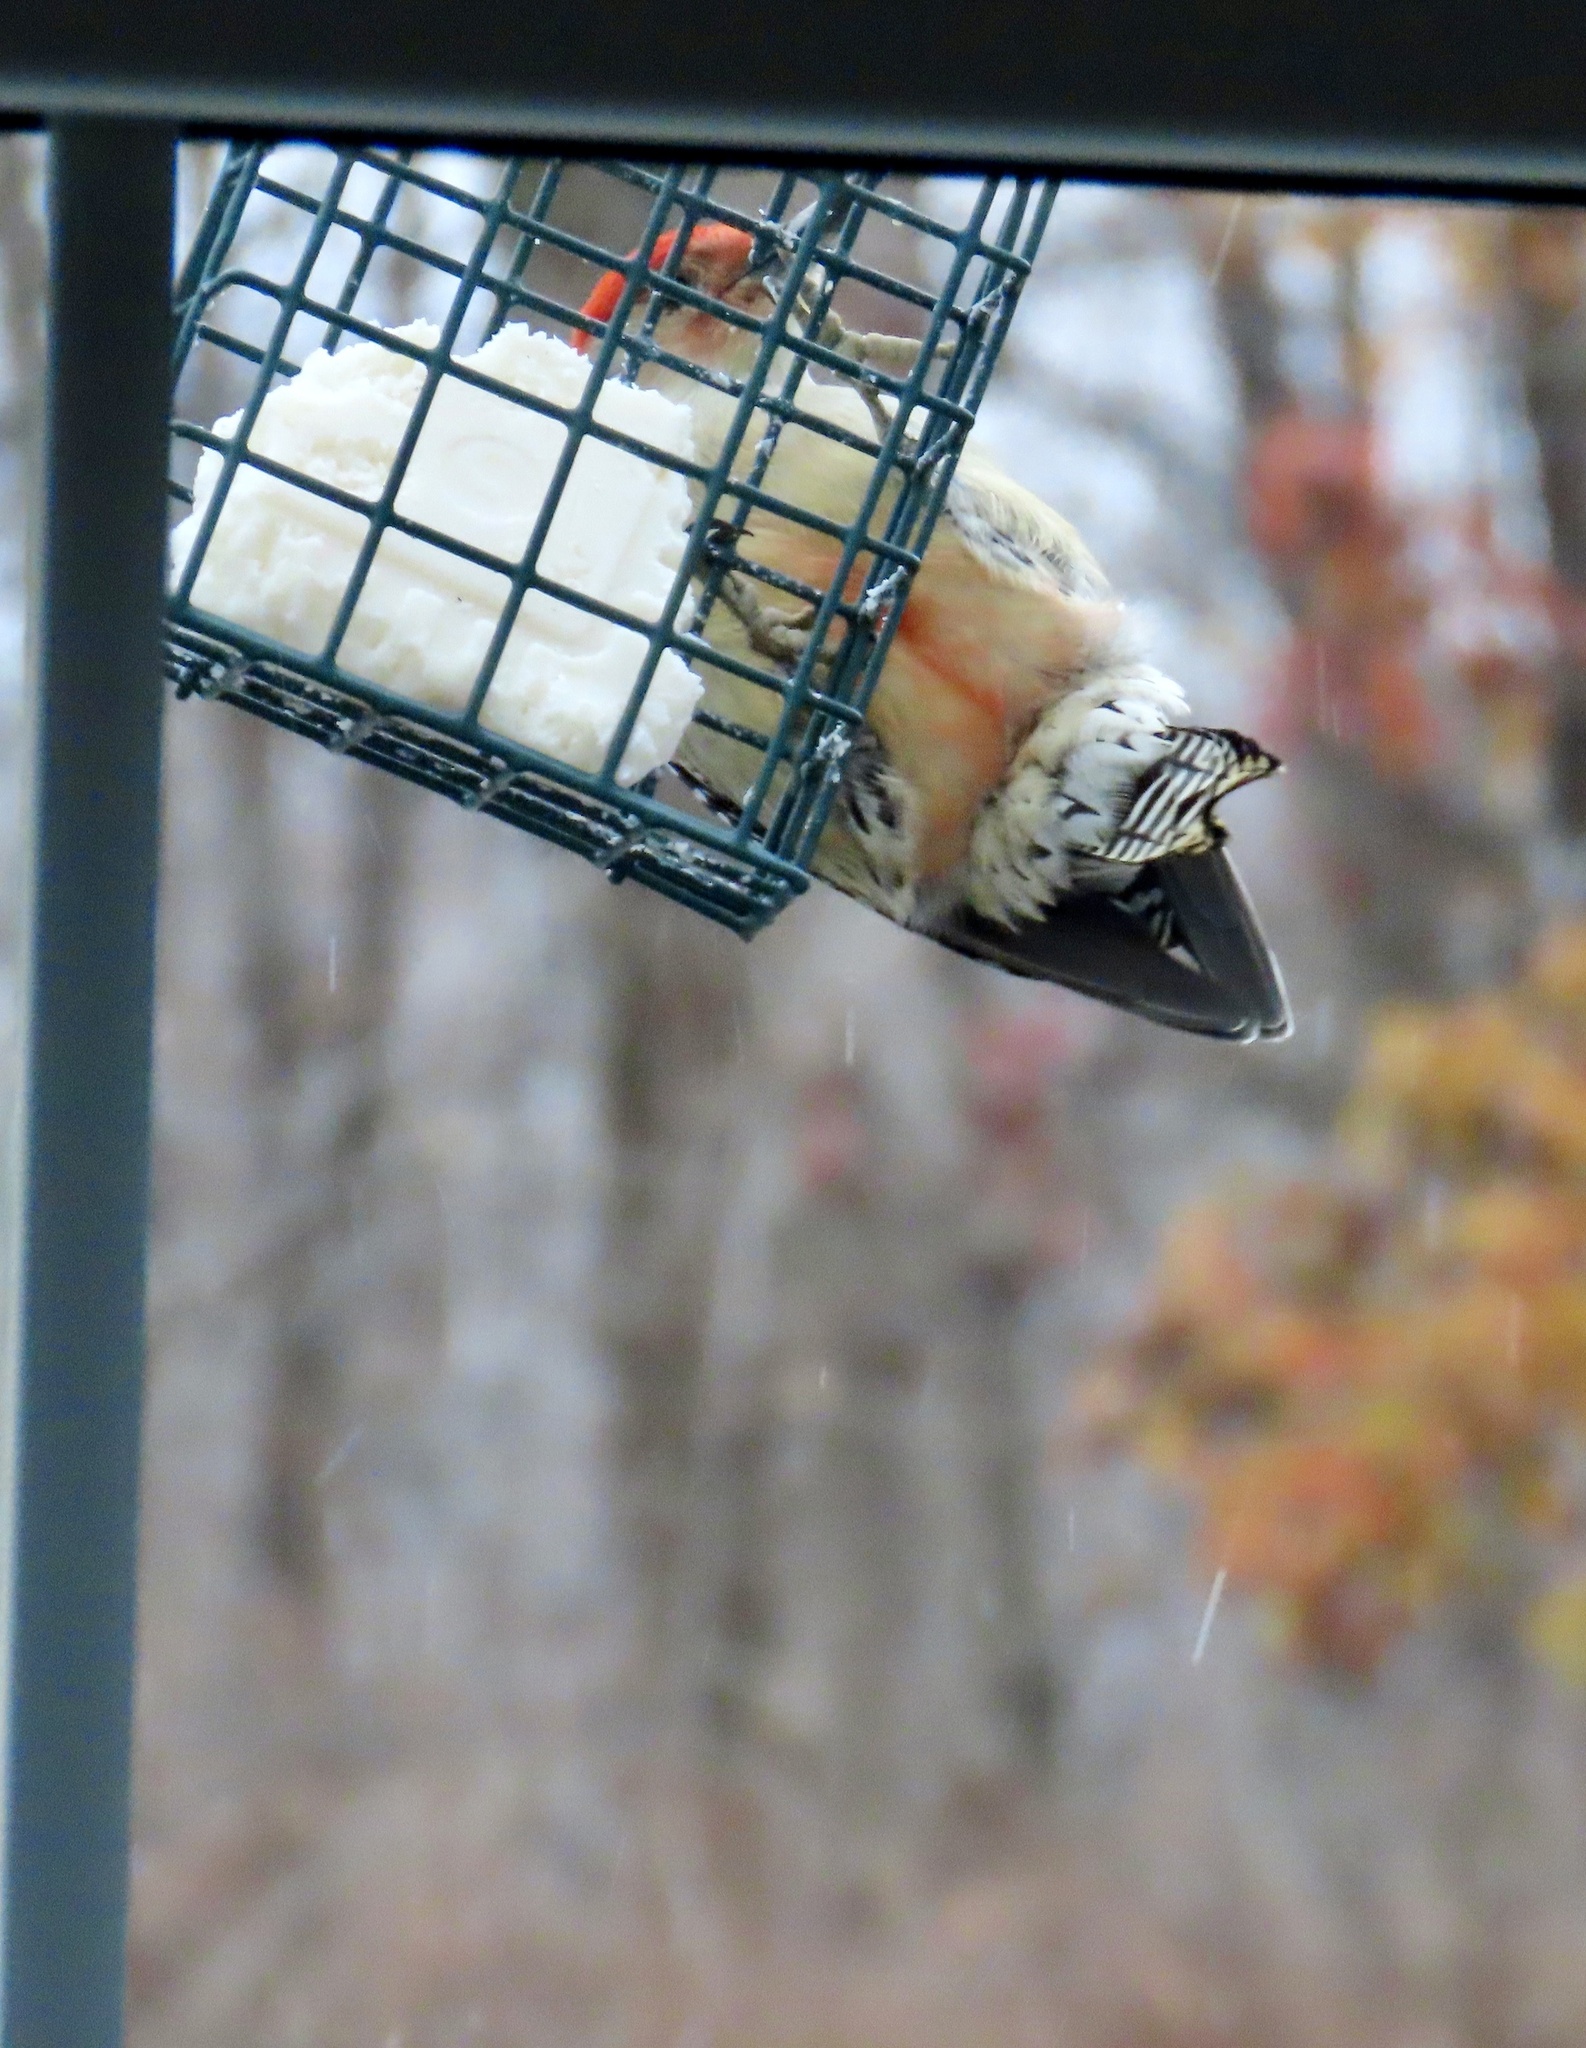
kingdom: Animalia
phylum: Chordata
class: Aves
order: Piciformes
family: Picidae
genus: Melanerpes
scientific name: Melanerpes carolinus
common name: Red-bellied woodpecker
